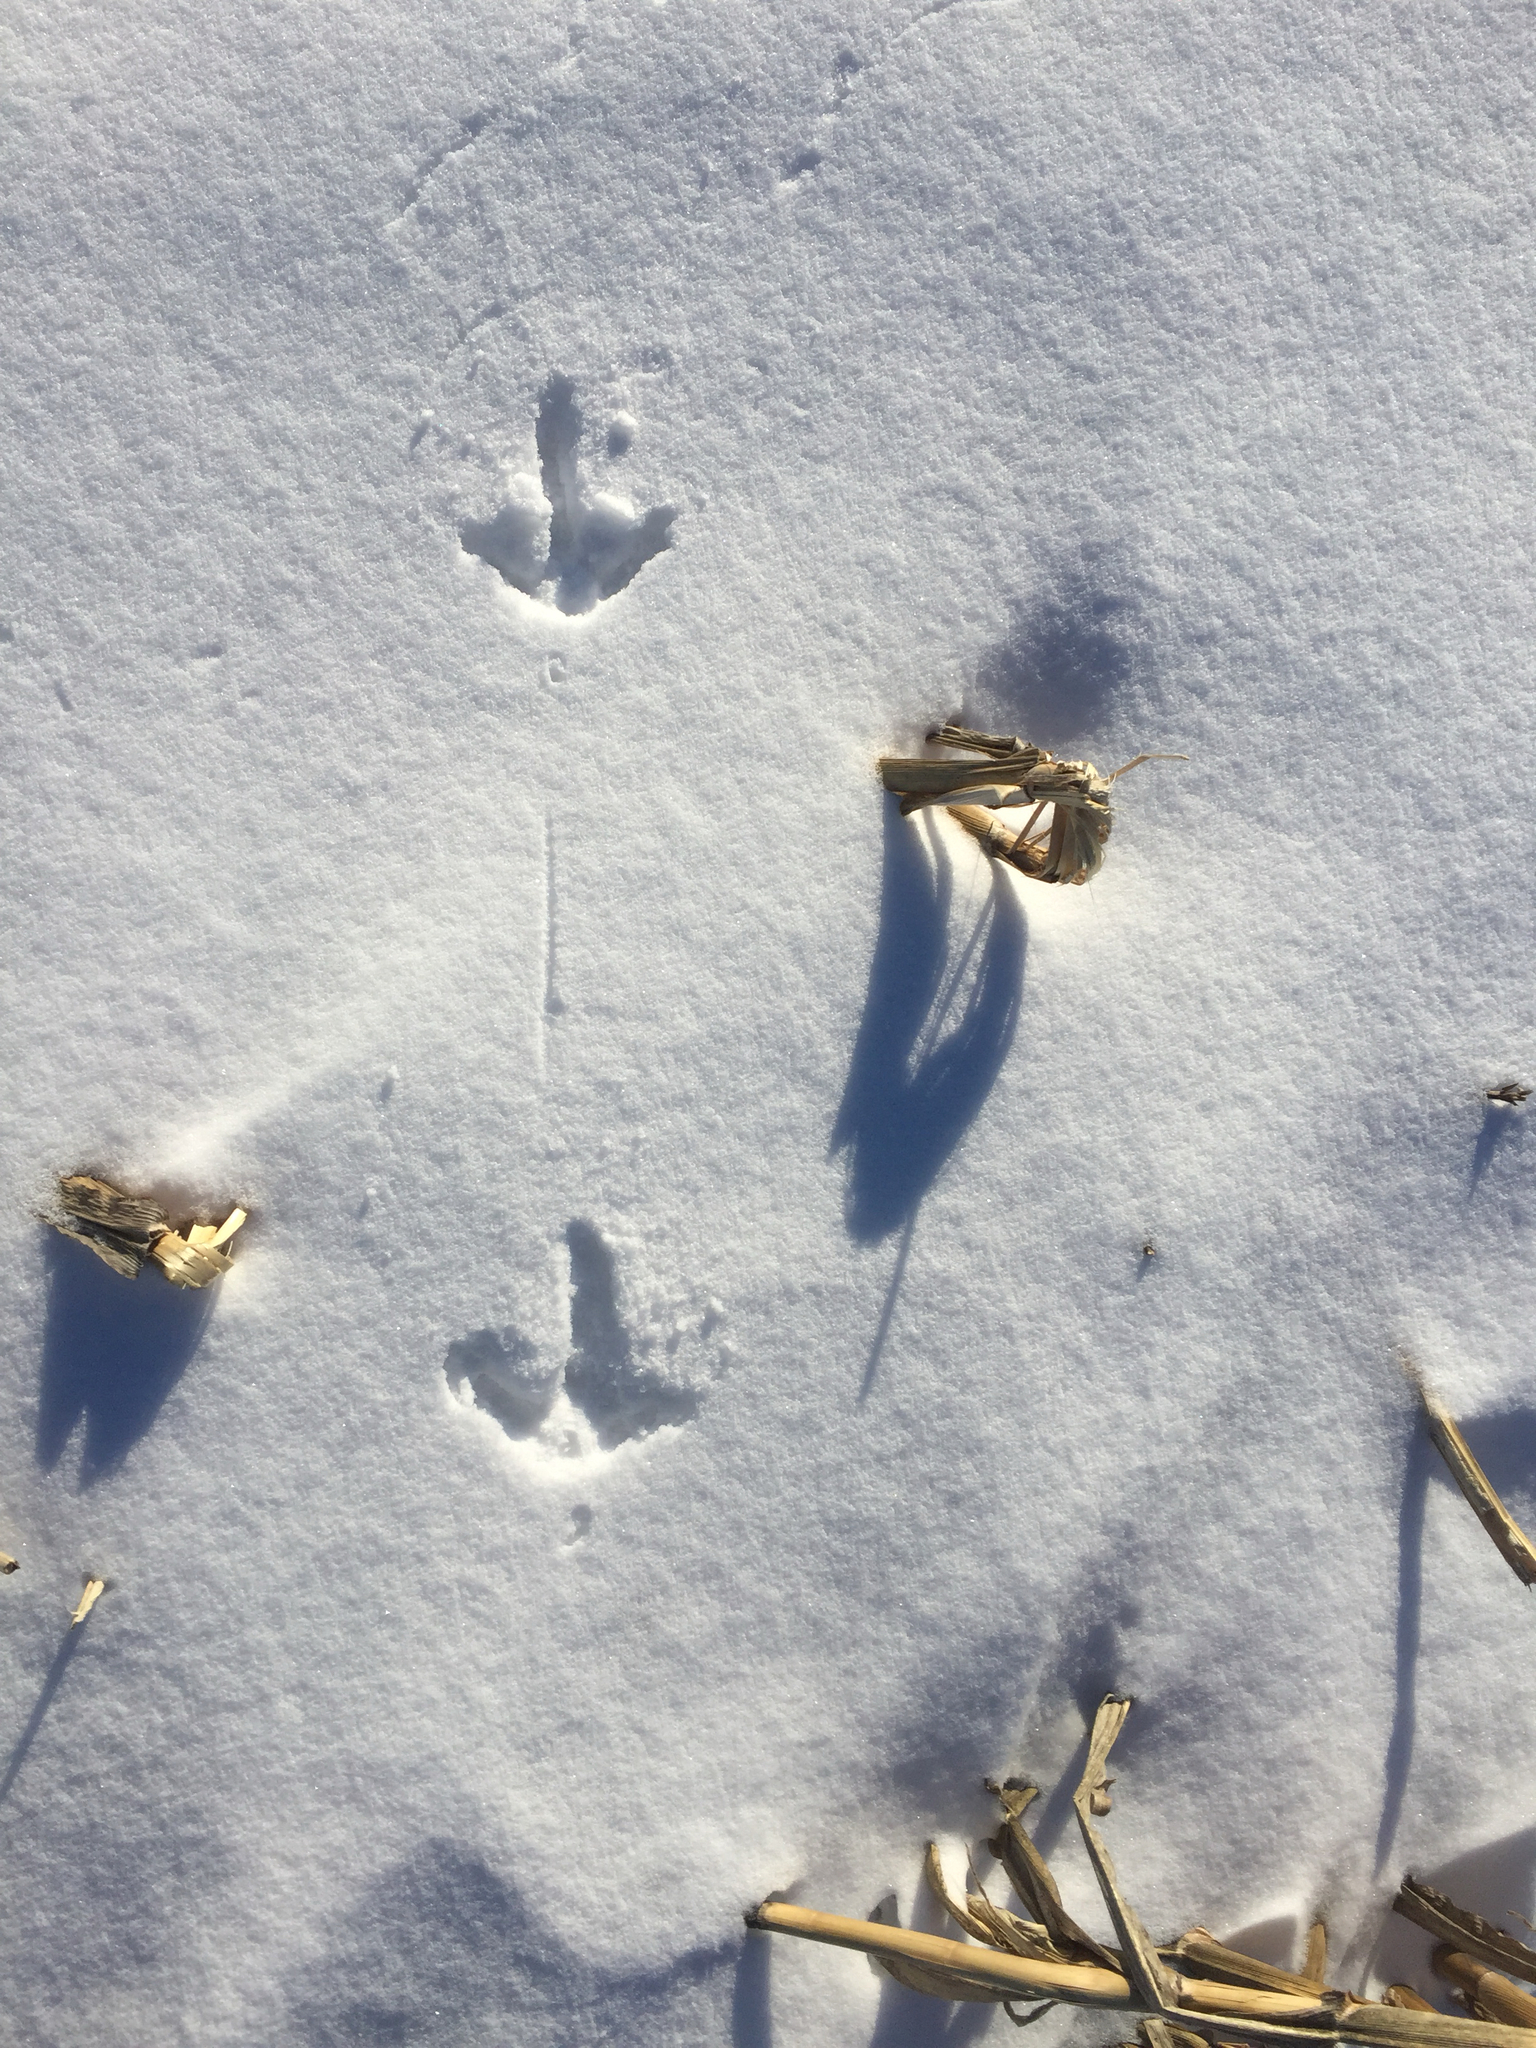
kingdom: Animalia
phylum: Chordata
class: Aves
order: Galliformes
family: Phasianidae
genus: Meleagris
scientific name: Meleagris gallopavo
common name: Wild turkey
